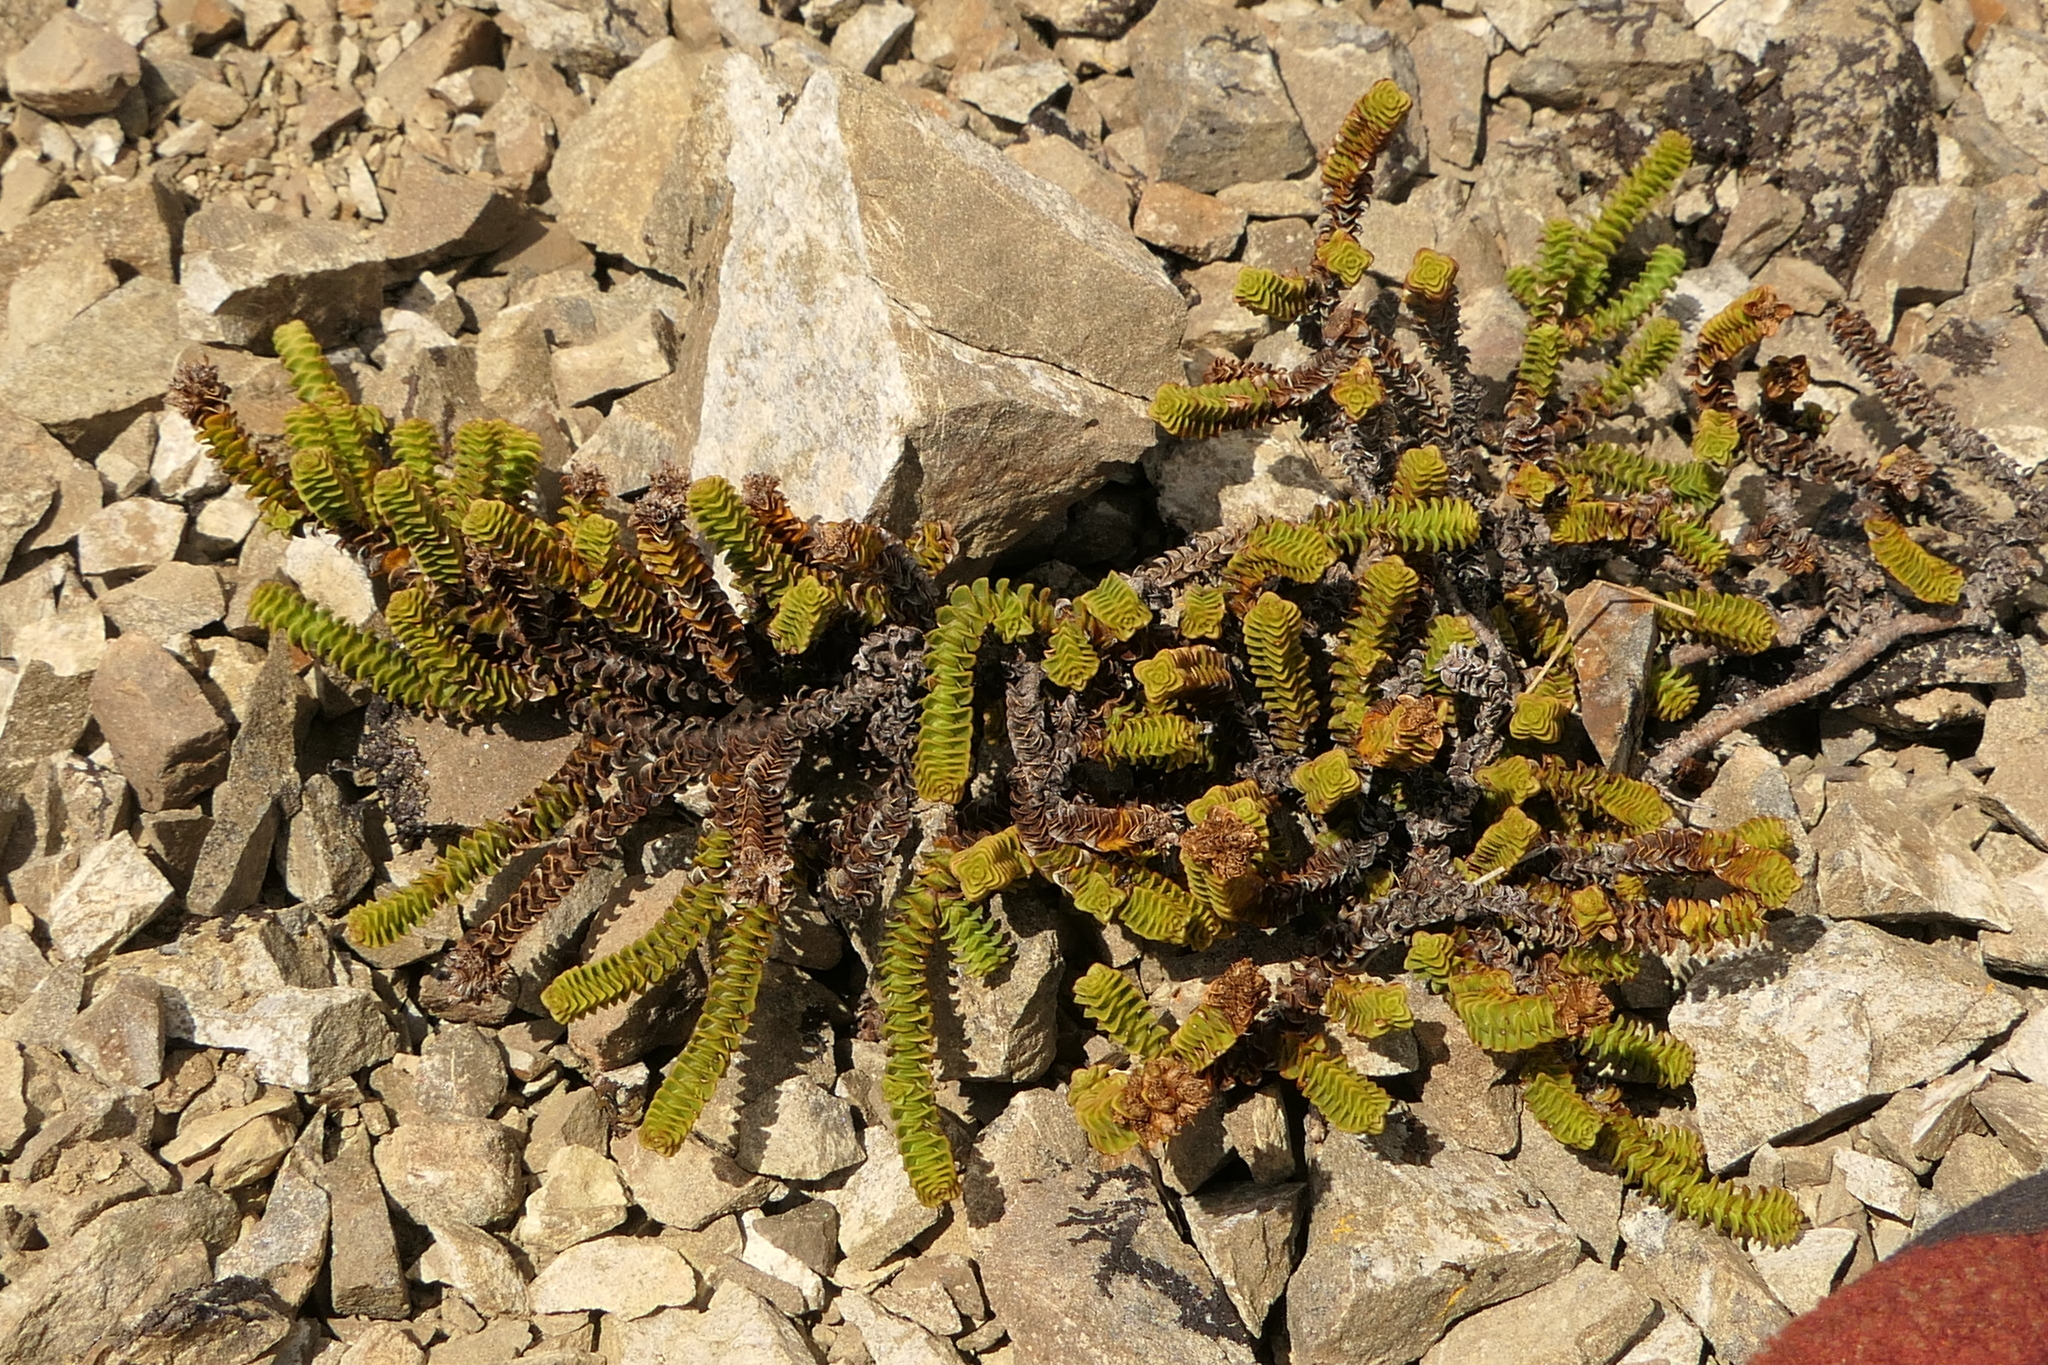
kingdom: Plantae
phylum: Tracheophyta
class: Magnoliopsida
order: Lamiales
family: Plantaginaceae
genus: Veronica
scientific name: Veronica epacridea
